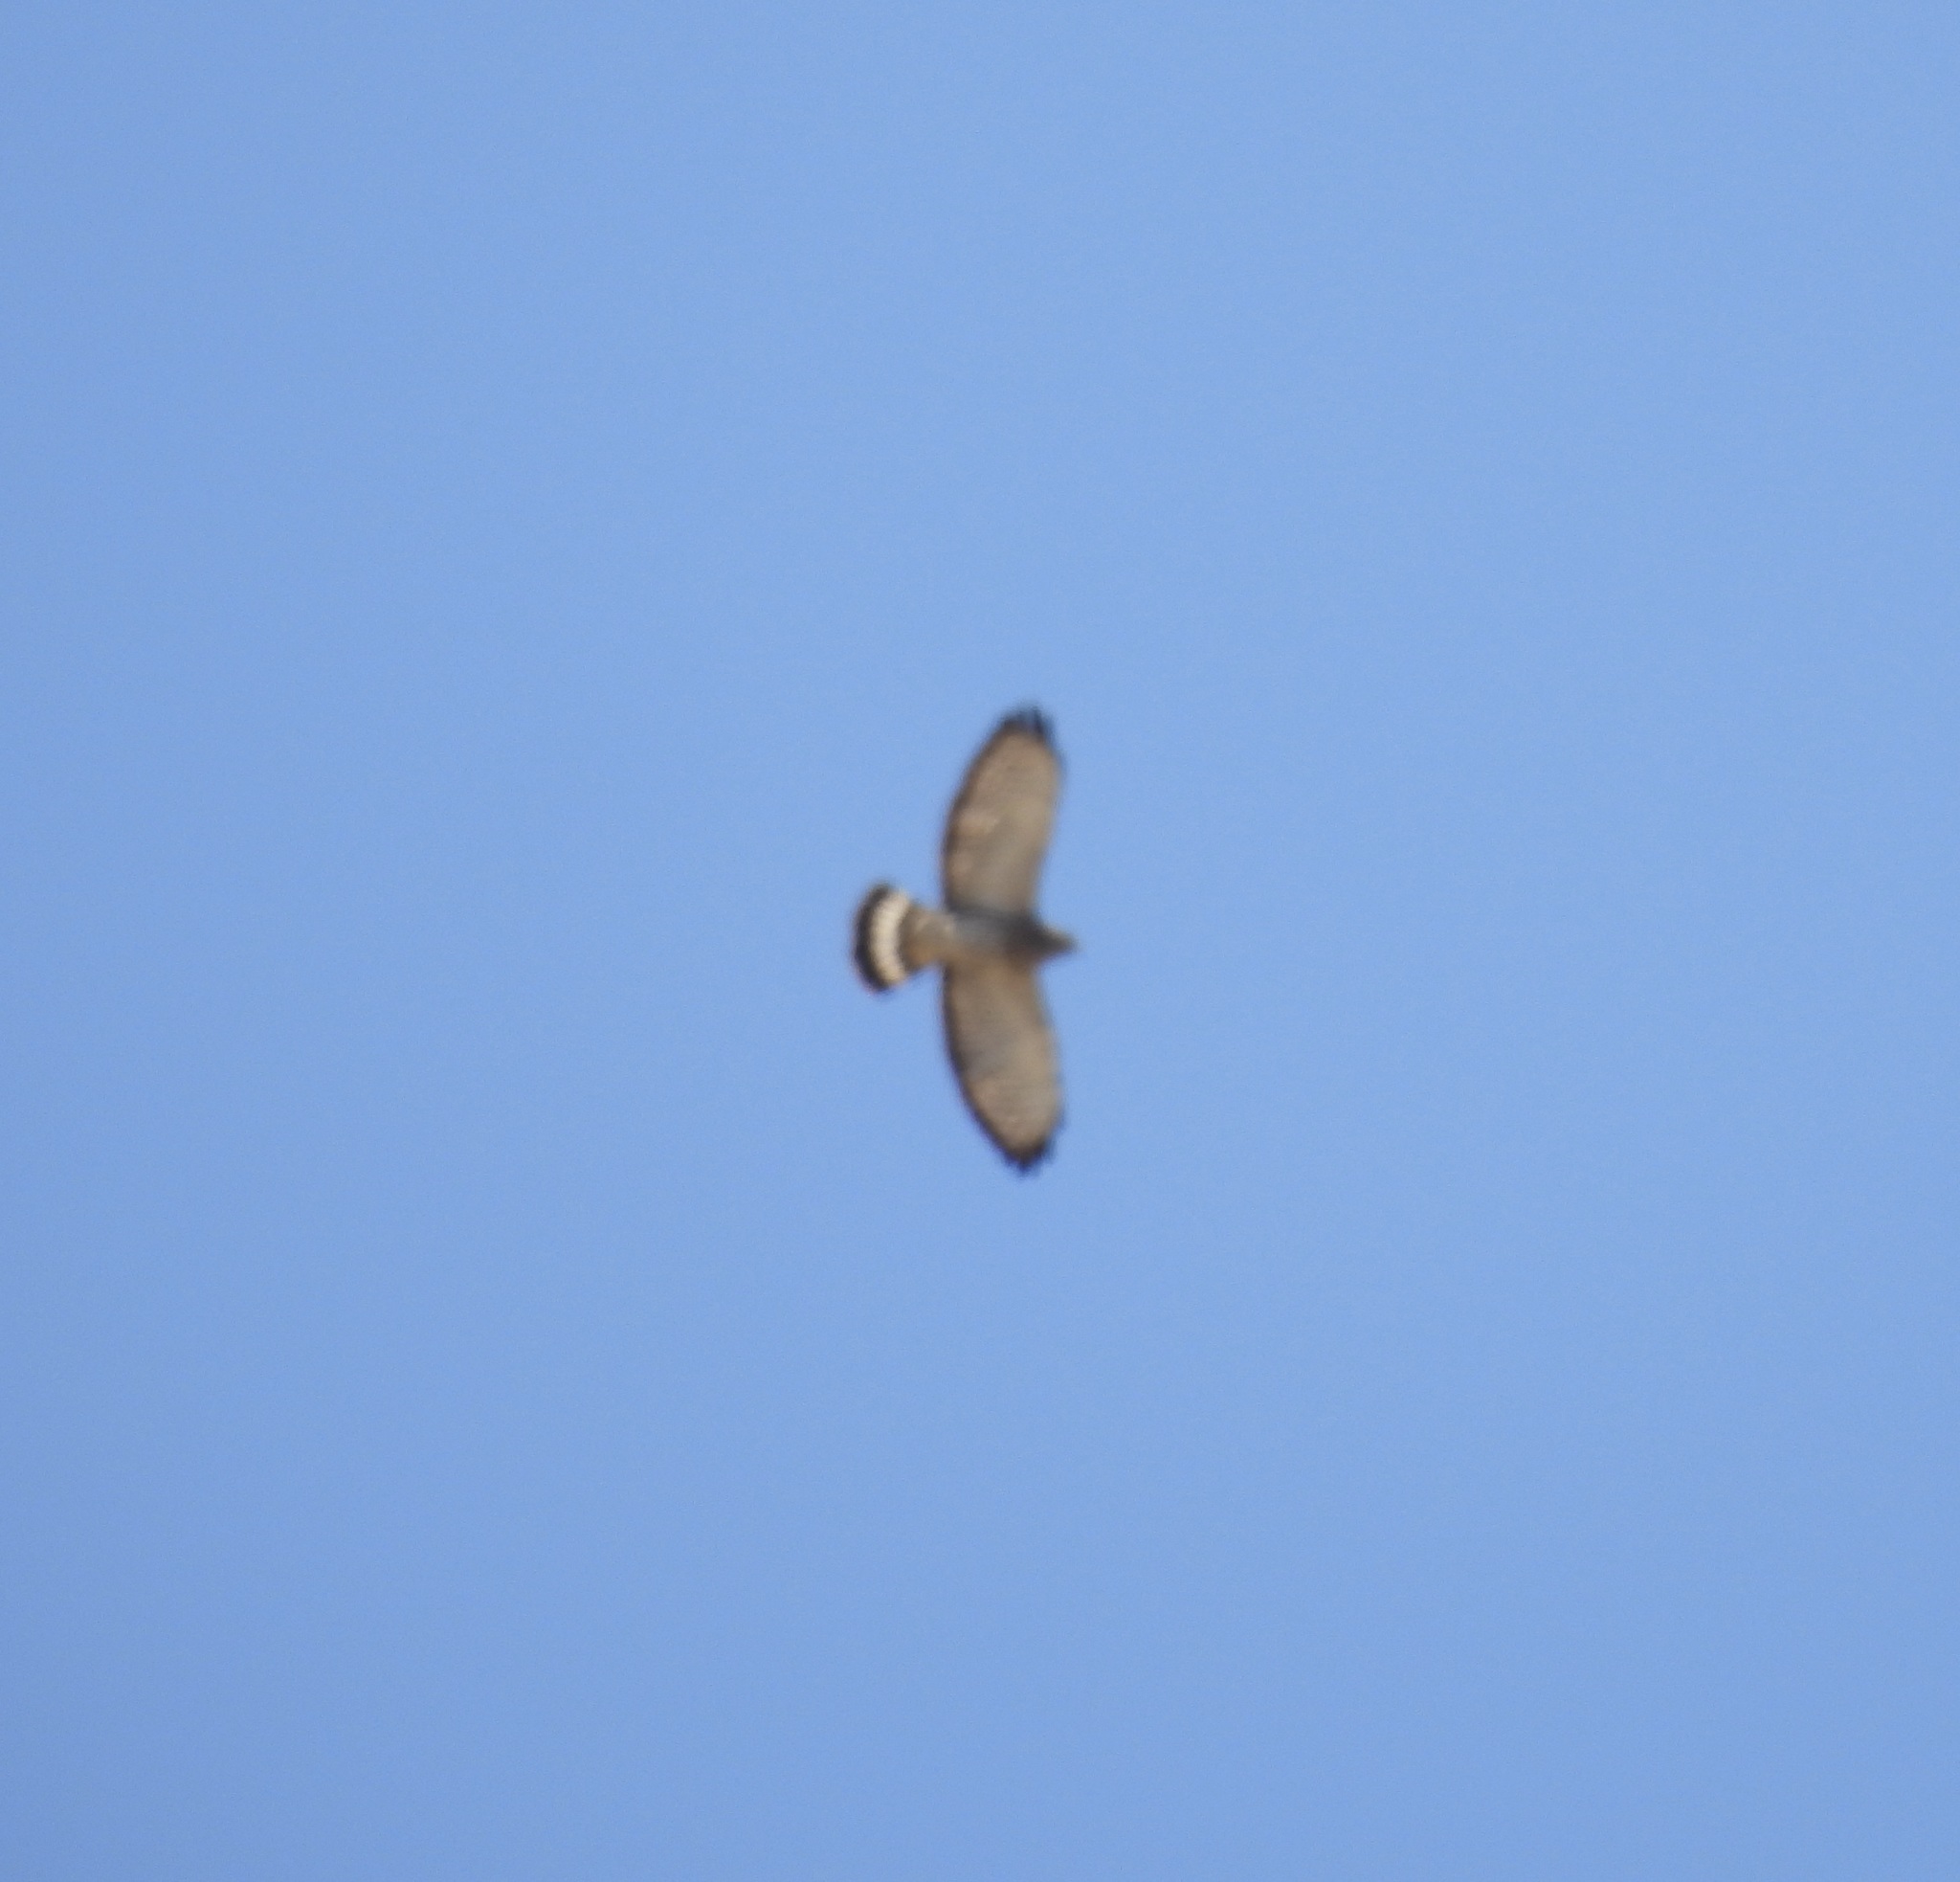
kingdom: Animalia
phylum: Chordata
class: Aves
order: Accipitriformes
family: Accipitridae
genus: Buteo
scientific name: Buteo platypterus
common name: Broad-winged hawk
